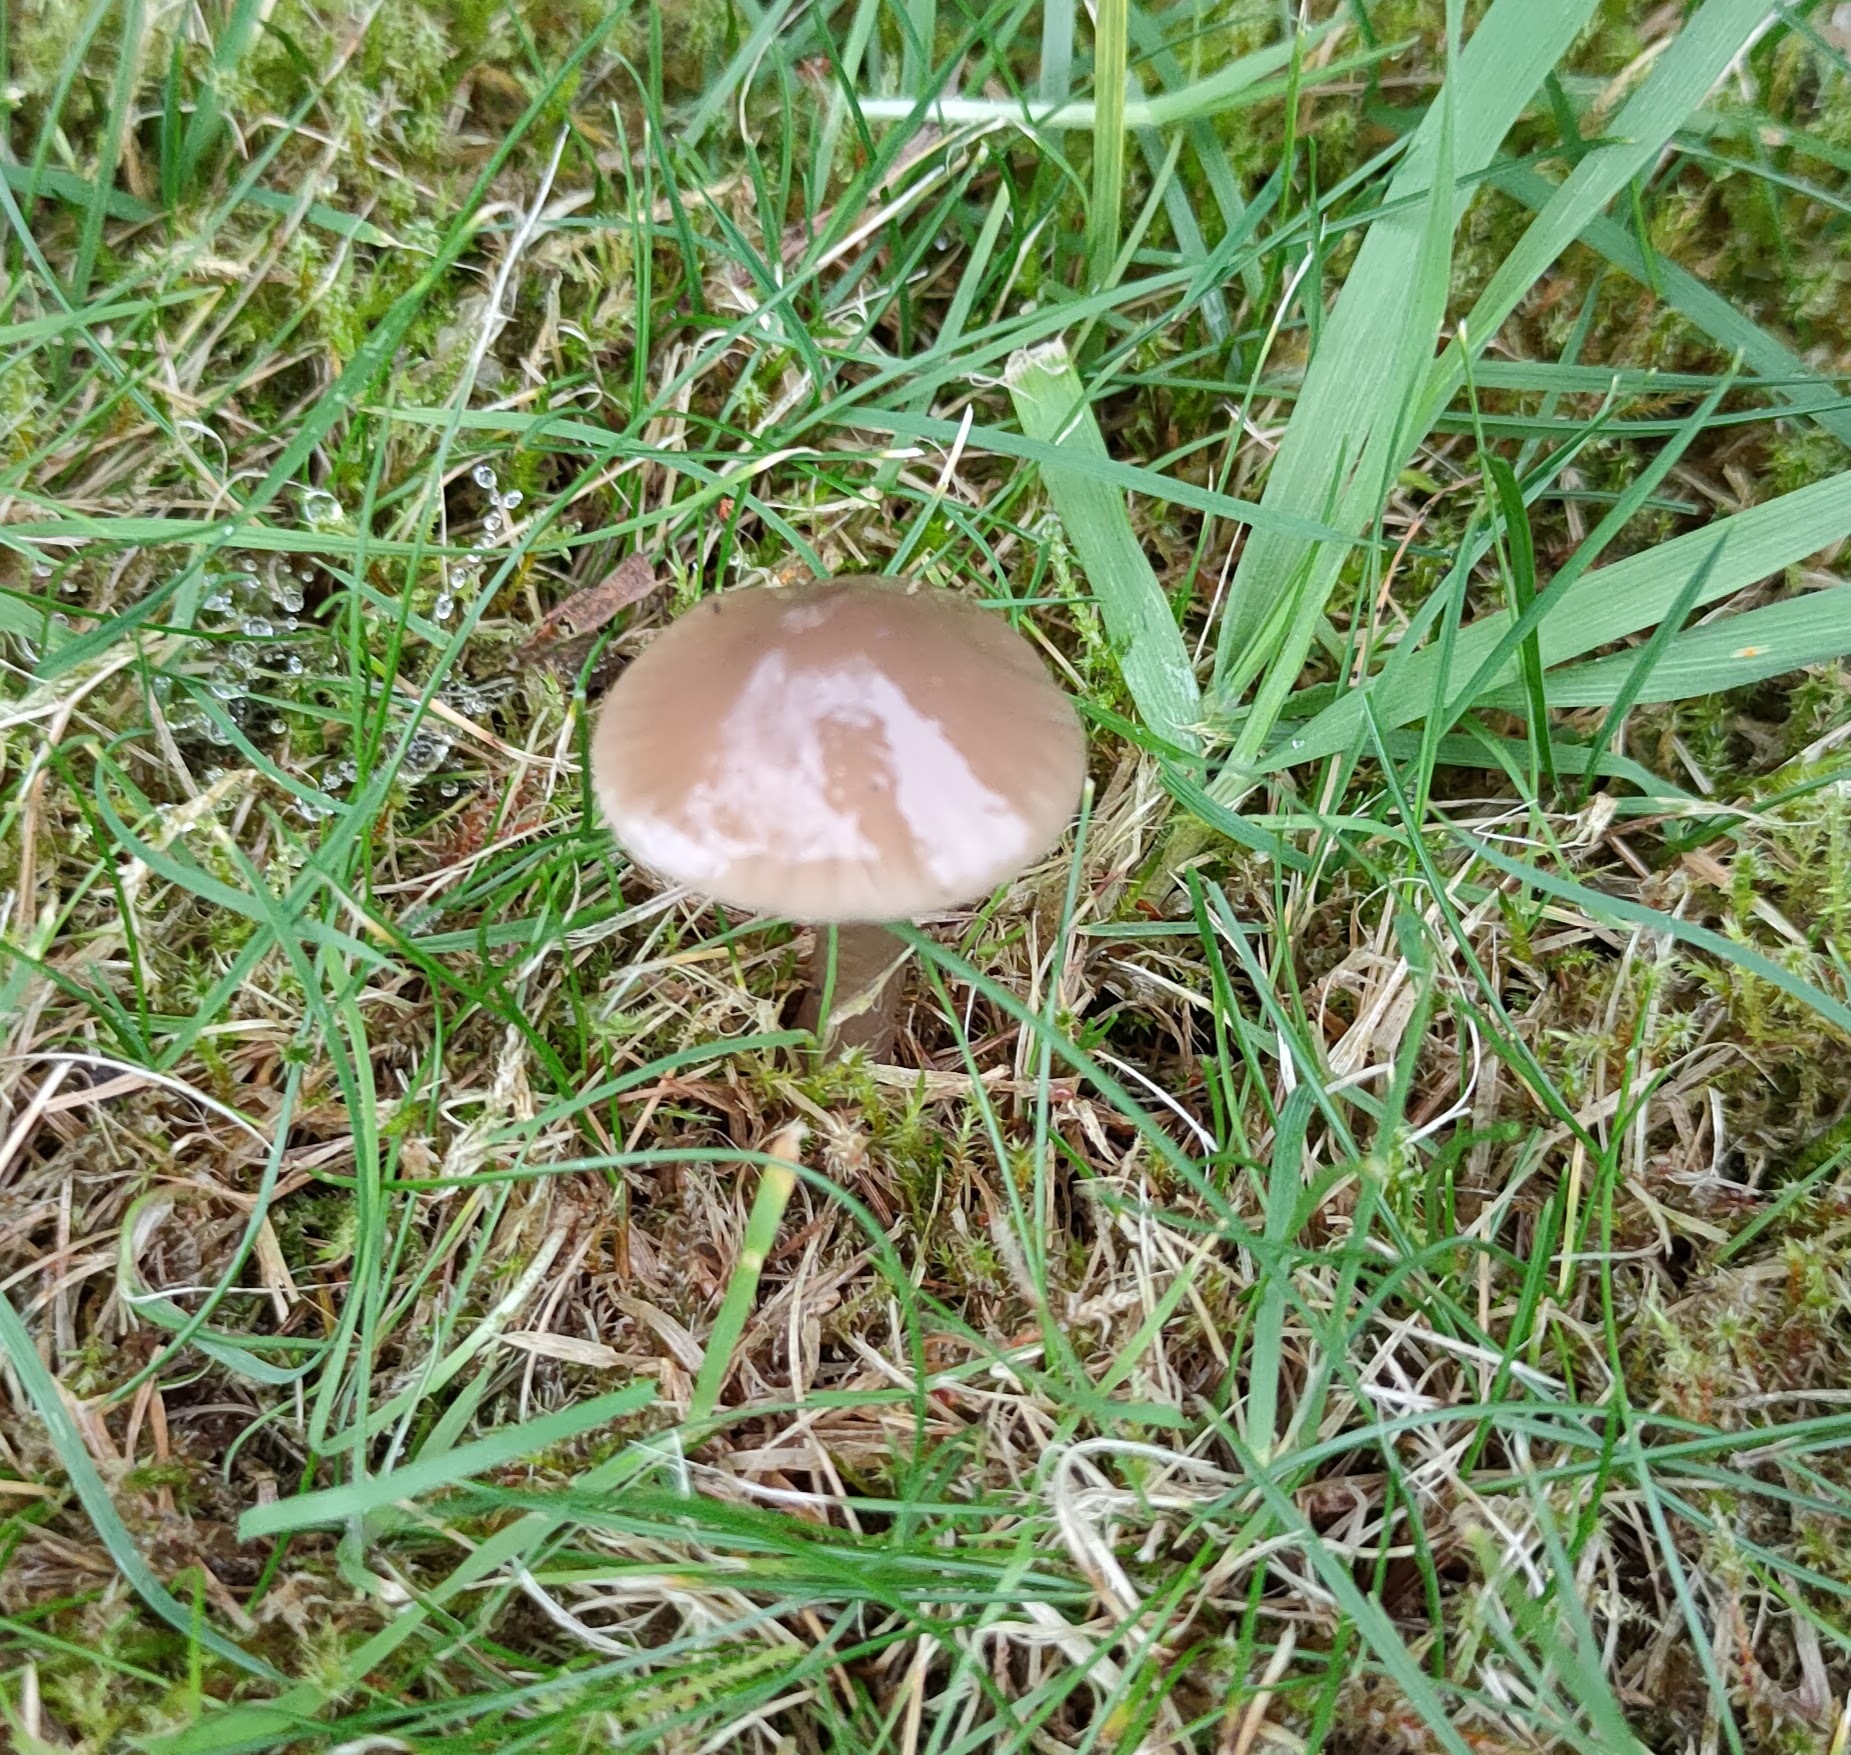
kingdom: Fungi
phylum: Basidiomycota
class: Agaricomycetes
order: Agaricales
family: Hygrophoraceae
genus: Gliophorus
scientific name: Gliophorus irrigatus
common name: Slimy waxcap
